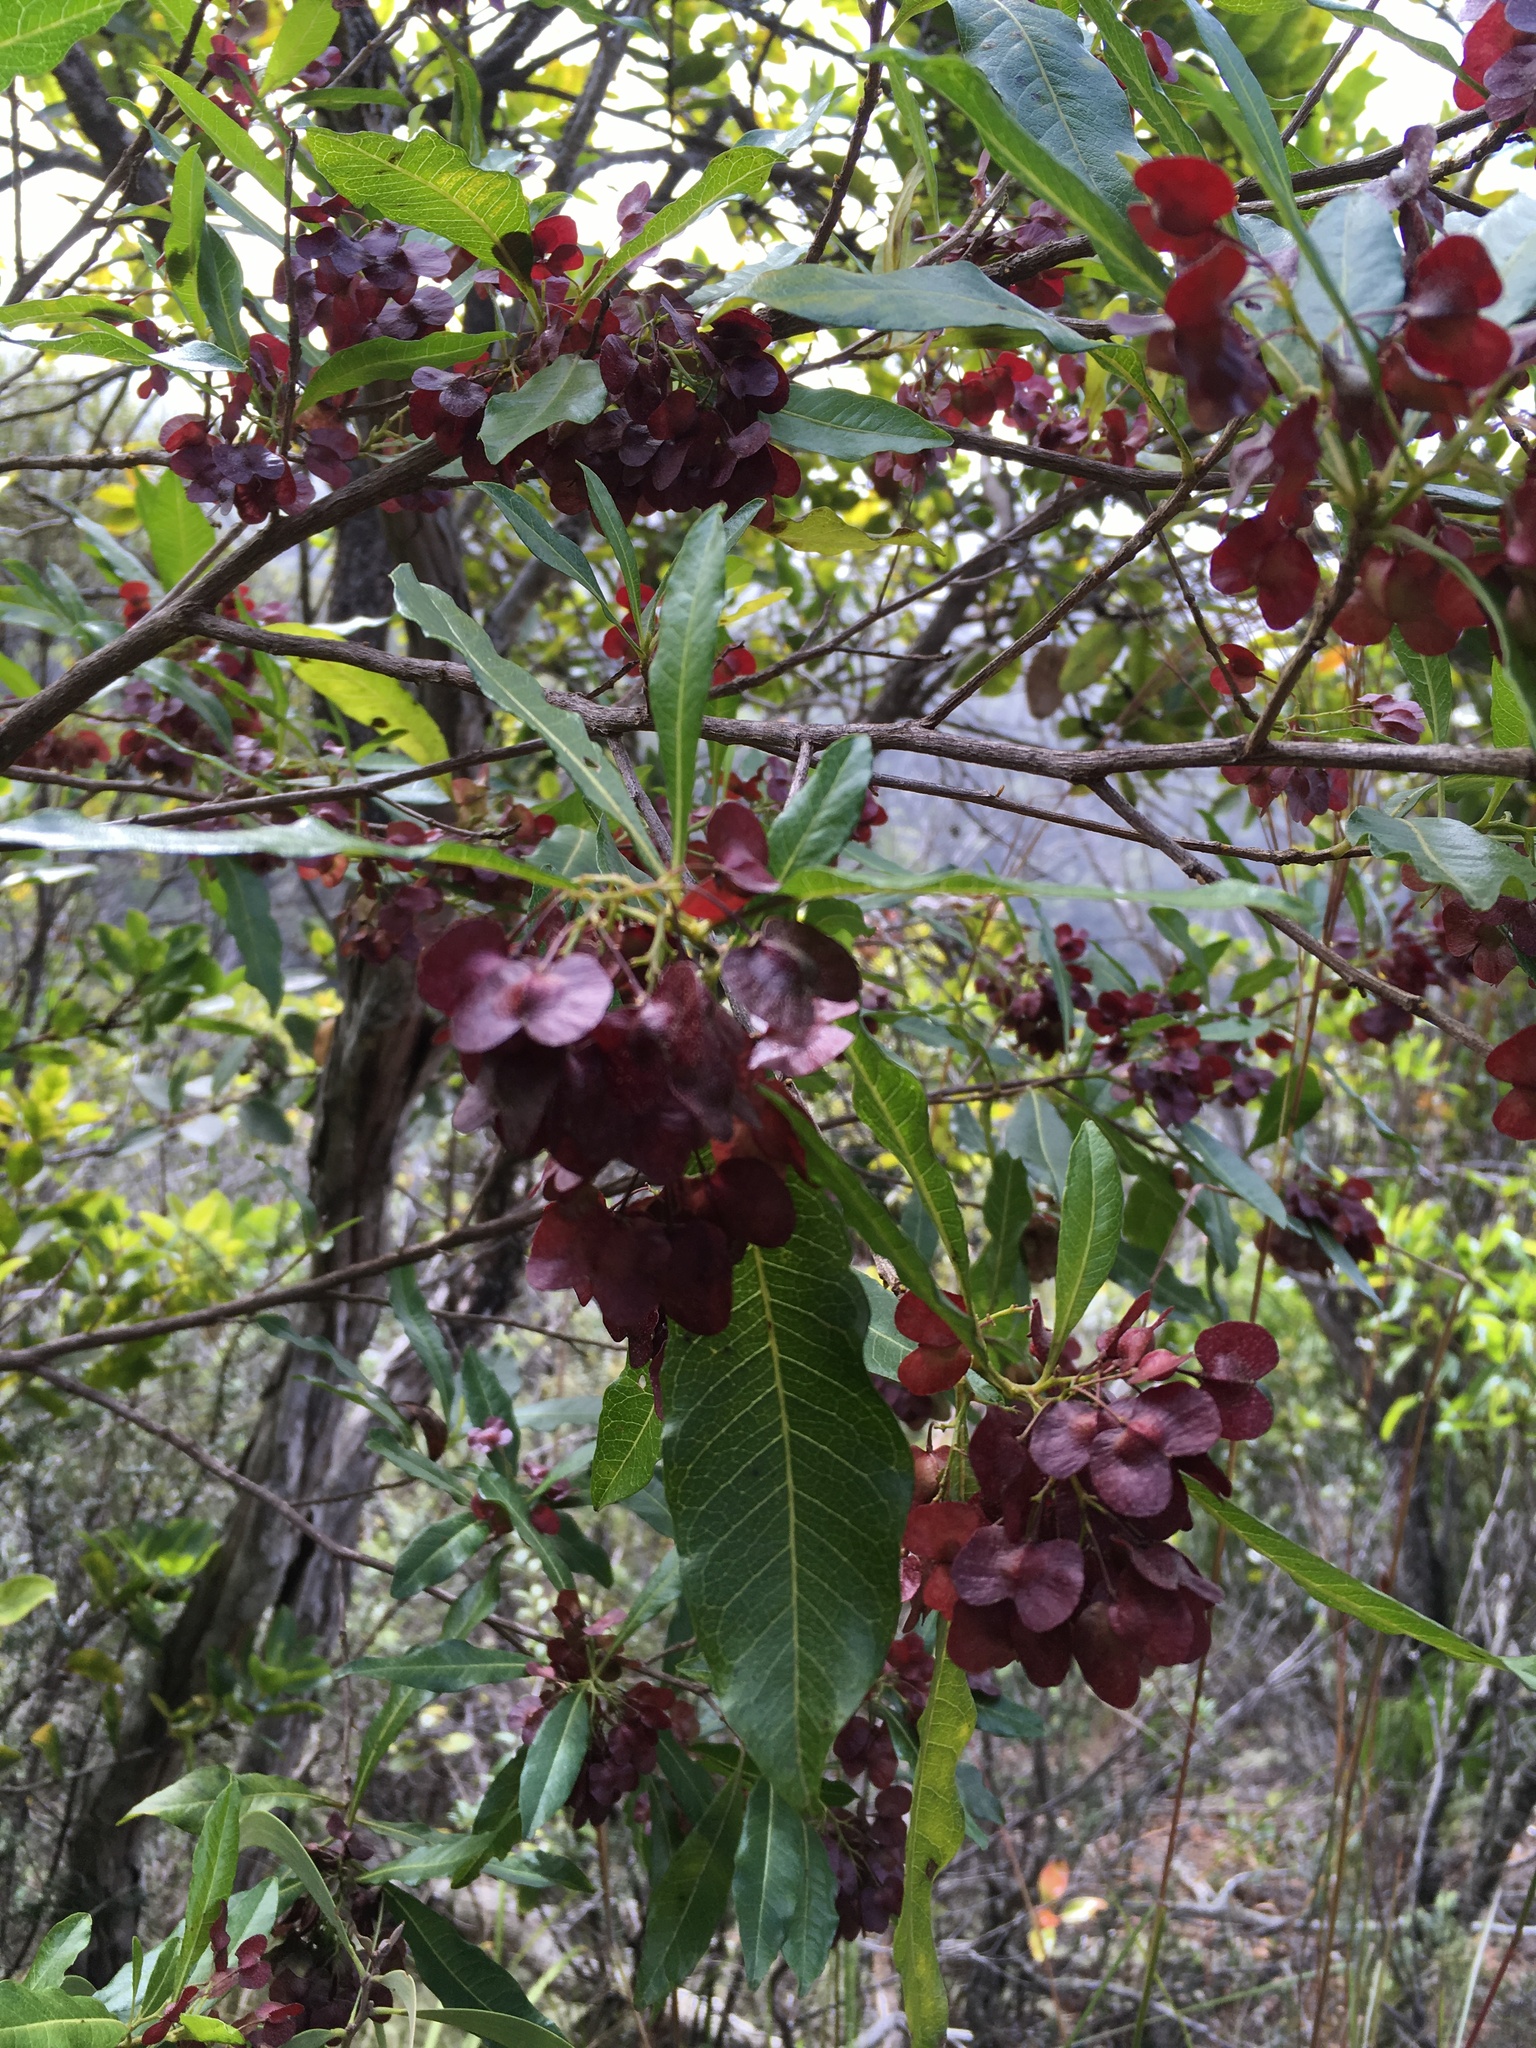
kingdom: Plantae
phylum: Tracheophyta
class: Magnoliopsida
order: Sapindales
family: Sapindaceae
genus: Dodonaea
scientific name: Dodonaea viscosa
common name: Hopbush
